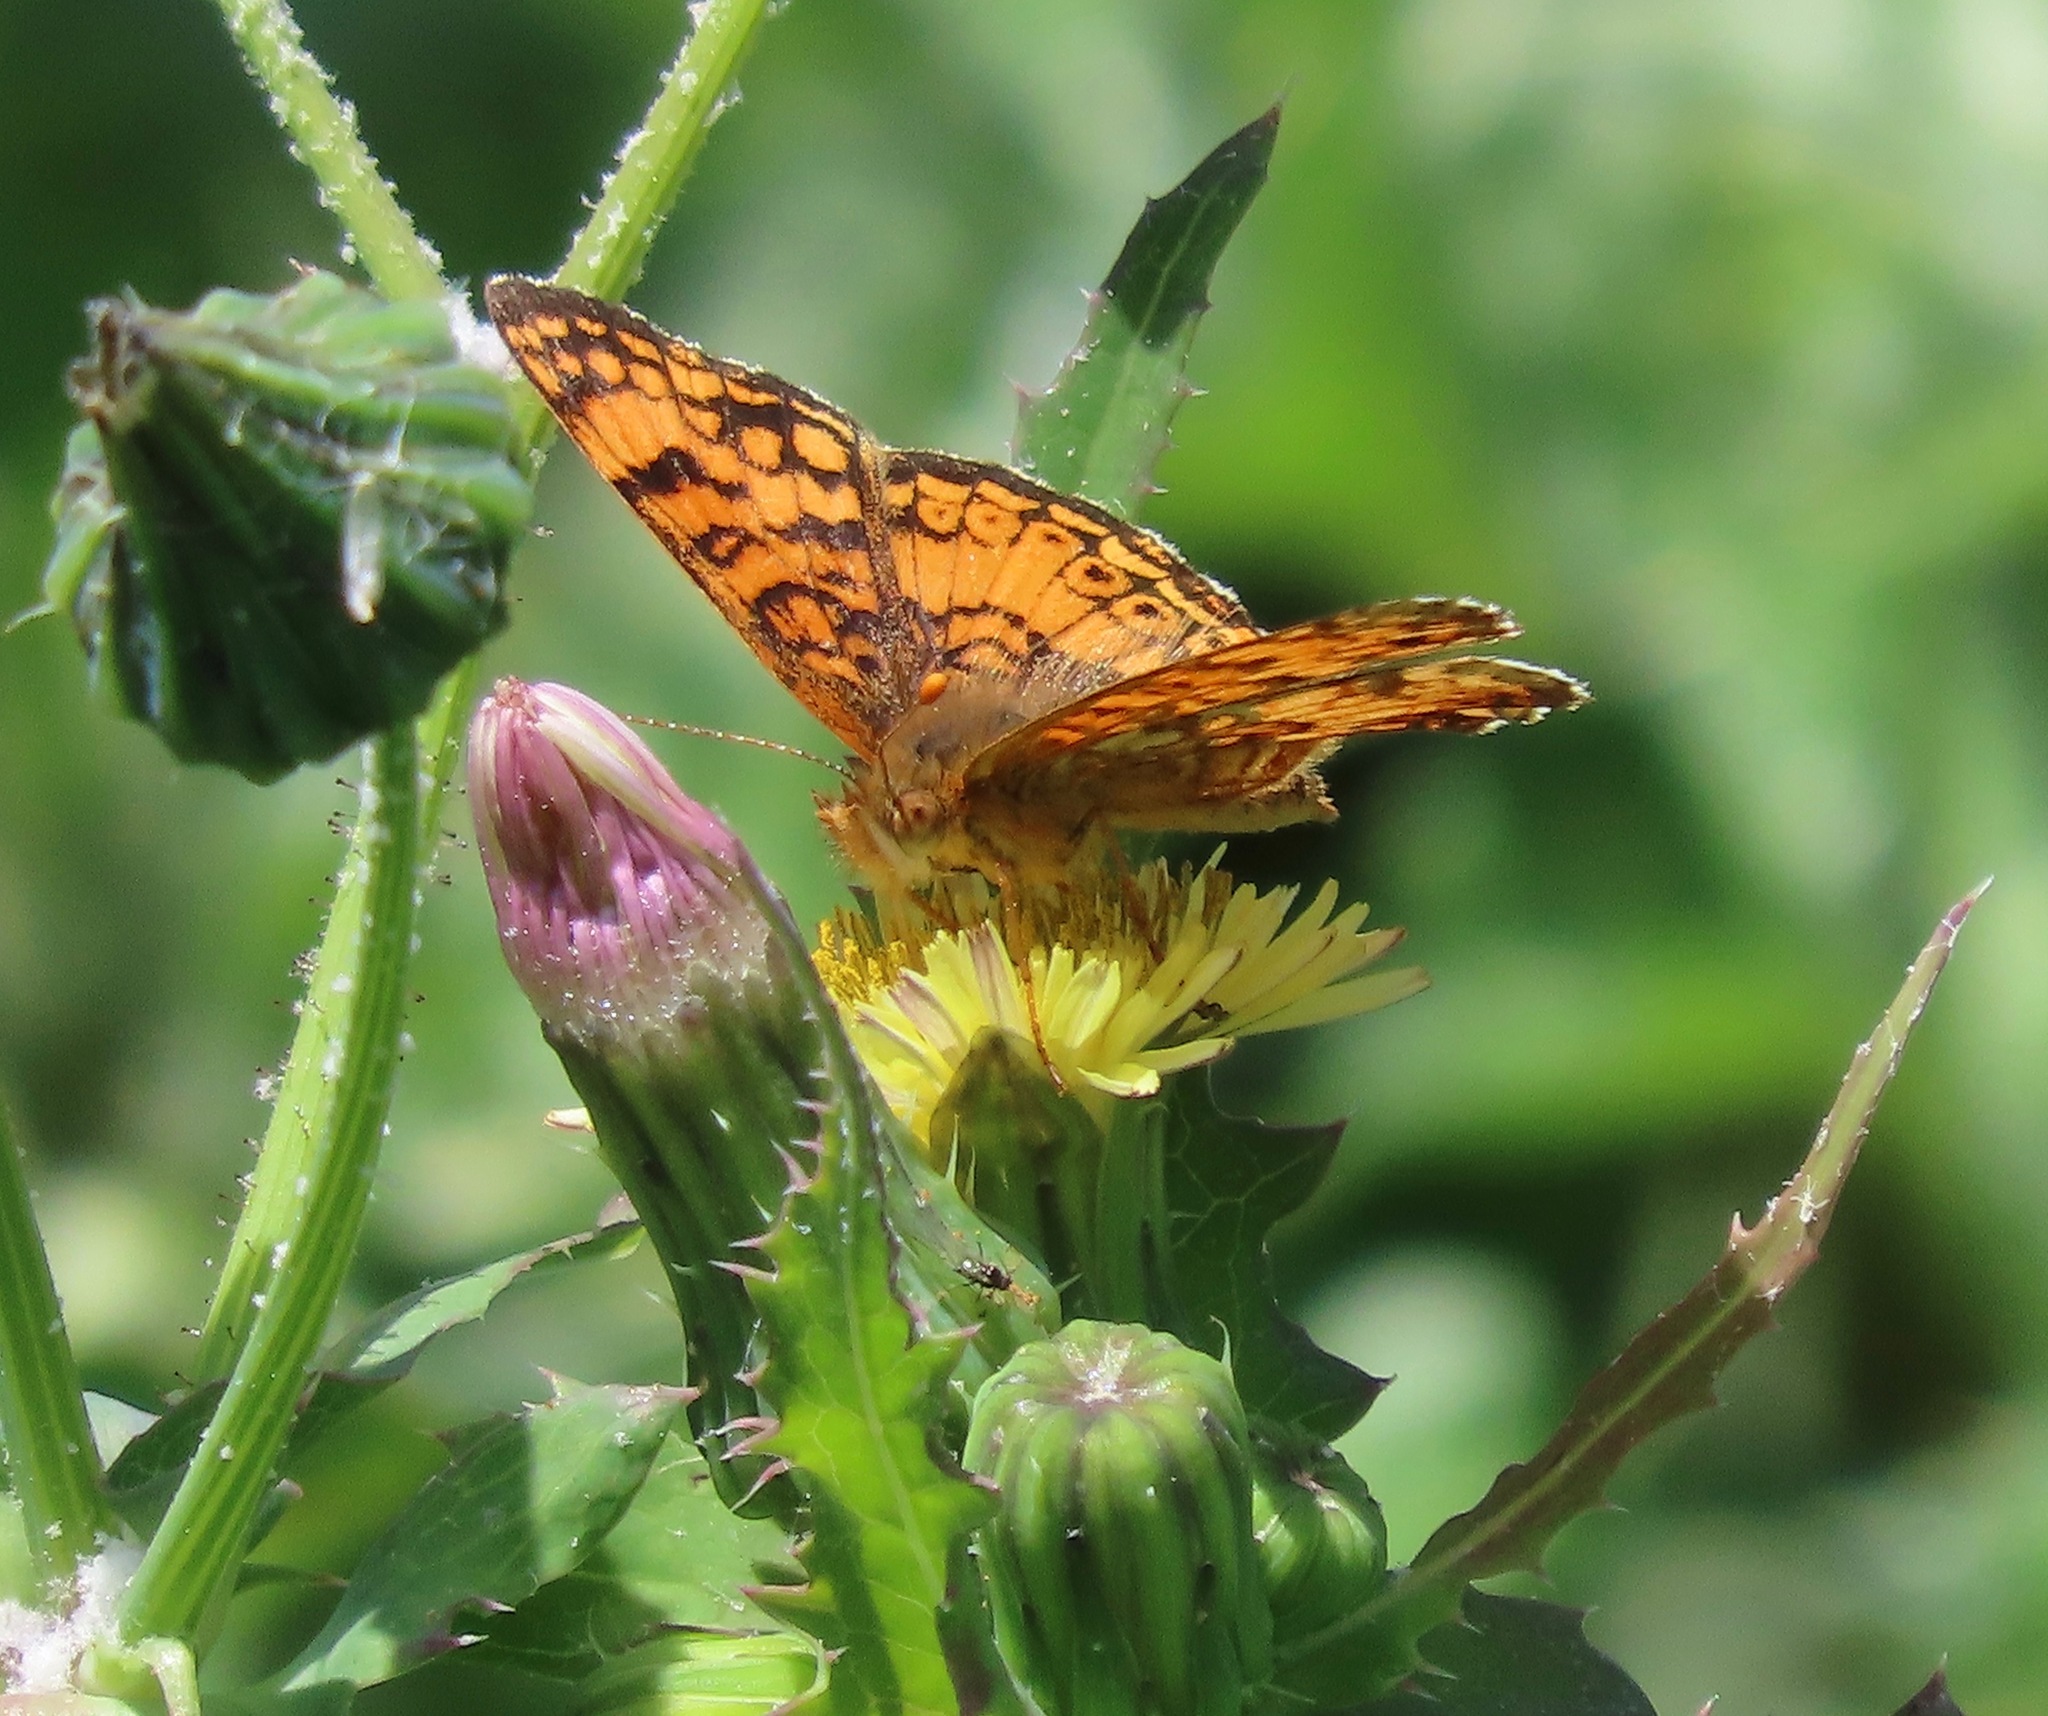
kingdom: Animalia
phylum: Arthropoda
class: Insecta
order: Lepidoptera
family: Nymphalidae
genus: Eresia
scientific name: Eresia aveyrona
